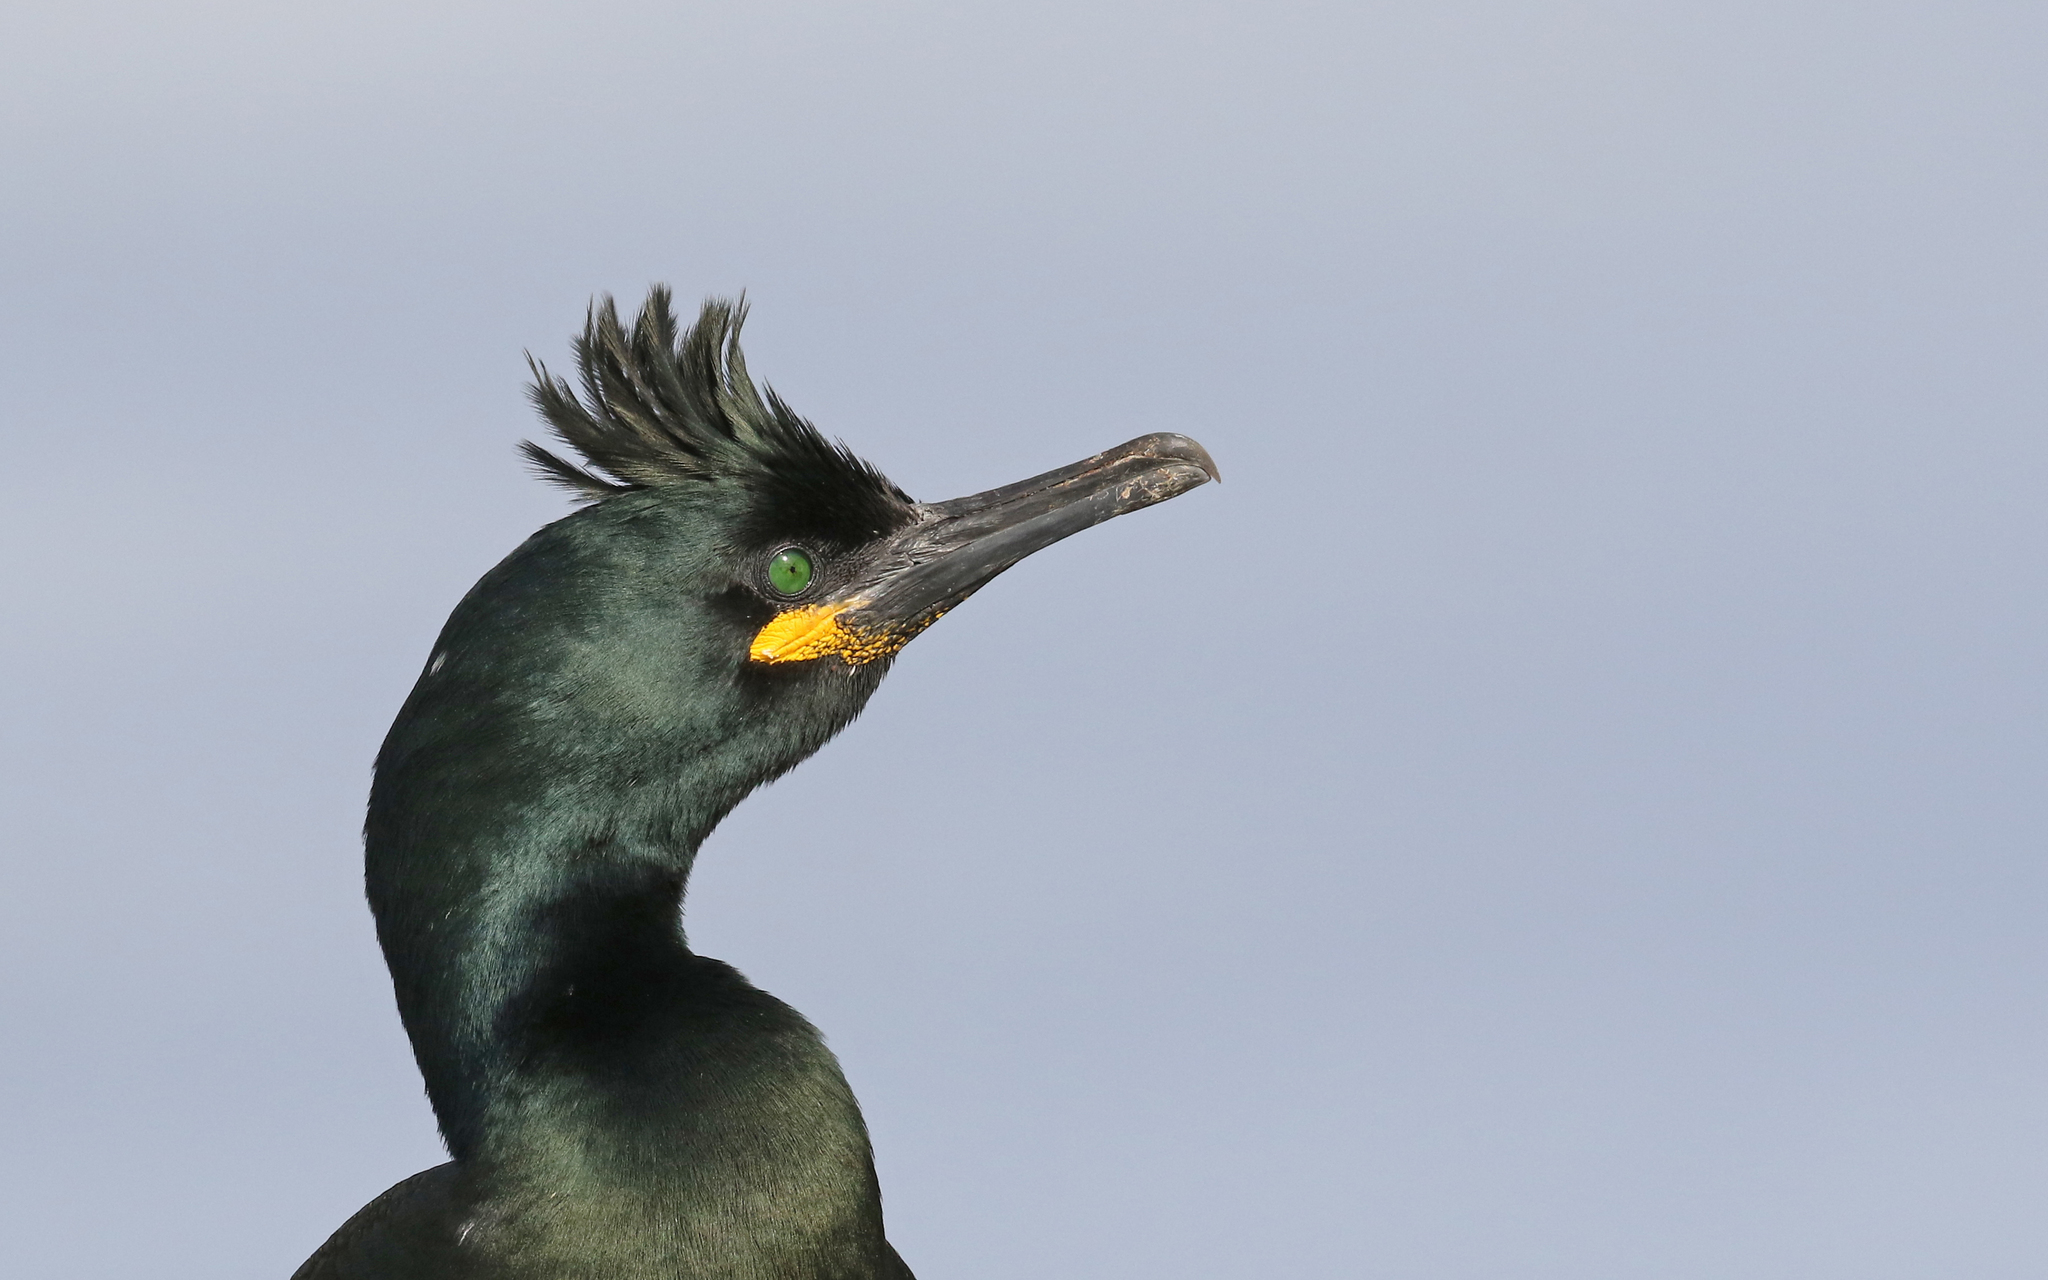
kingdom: Animalia
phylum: Chordata
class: Aves
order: Suliformes
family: Phalacrocoracidae
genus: Phalacrocorax
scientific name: Phalacrocorax aristotelis
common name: European shag
